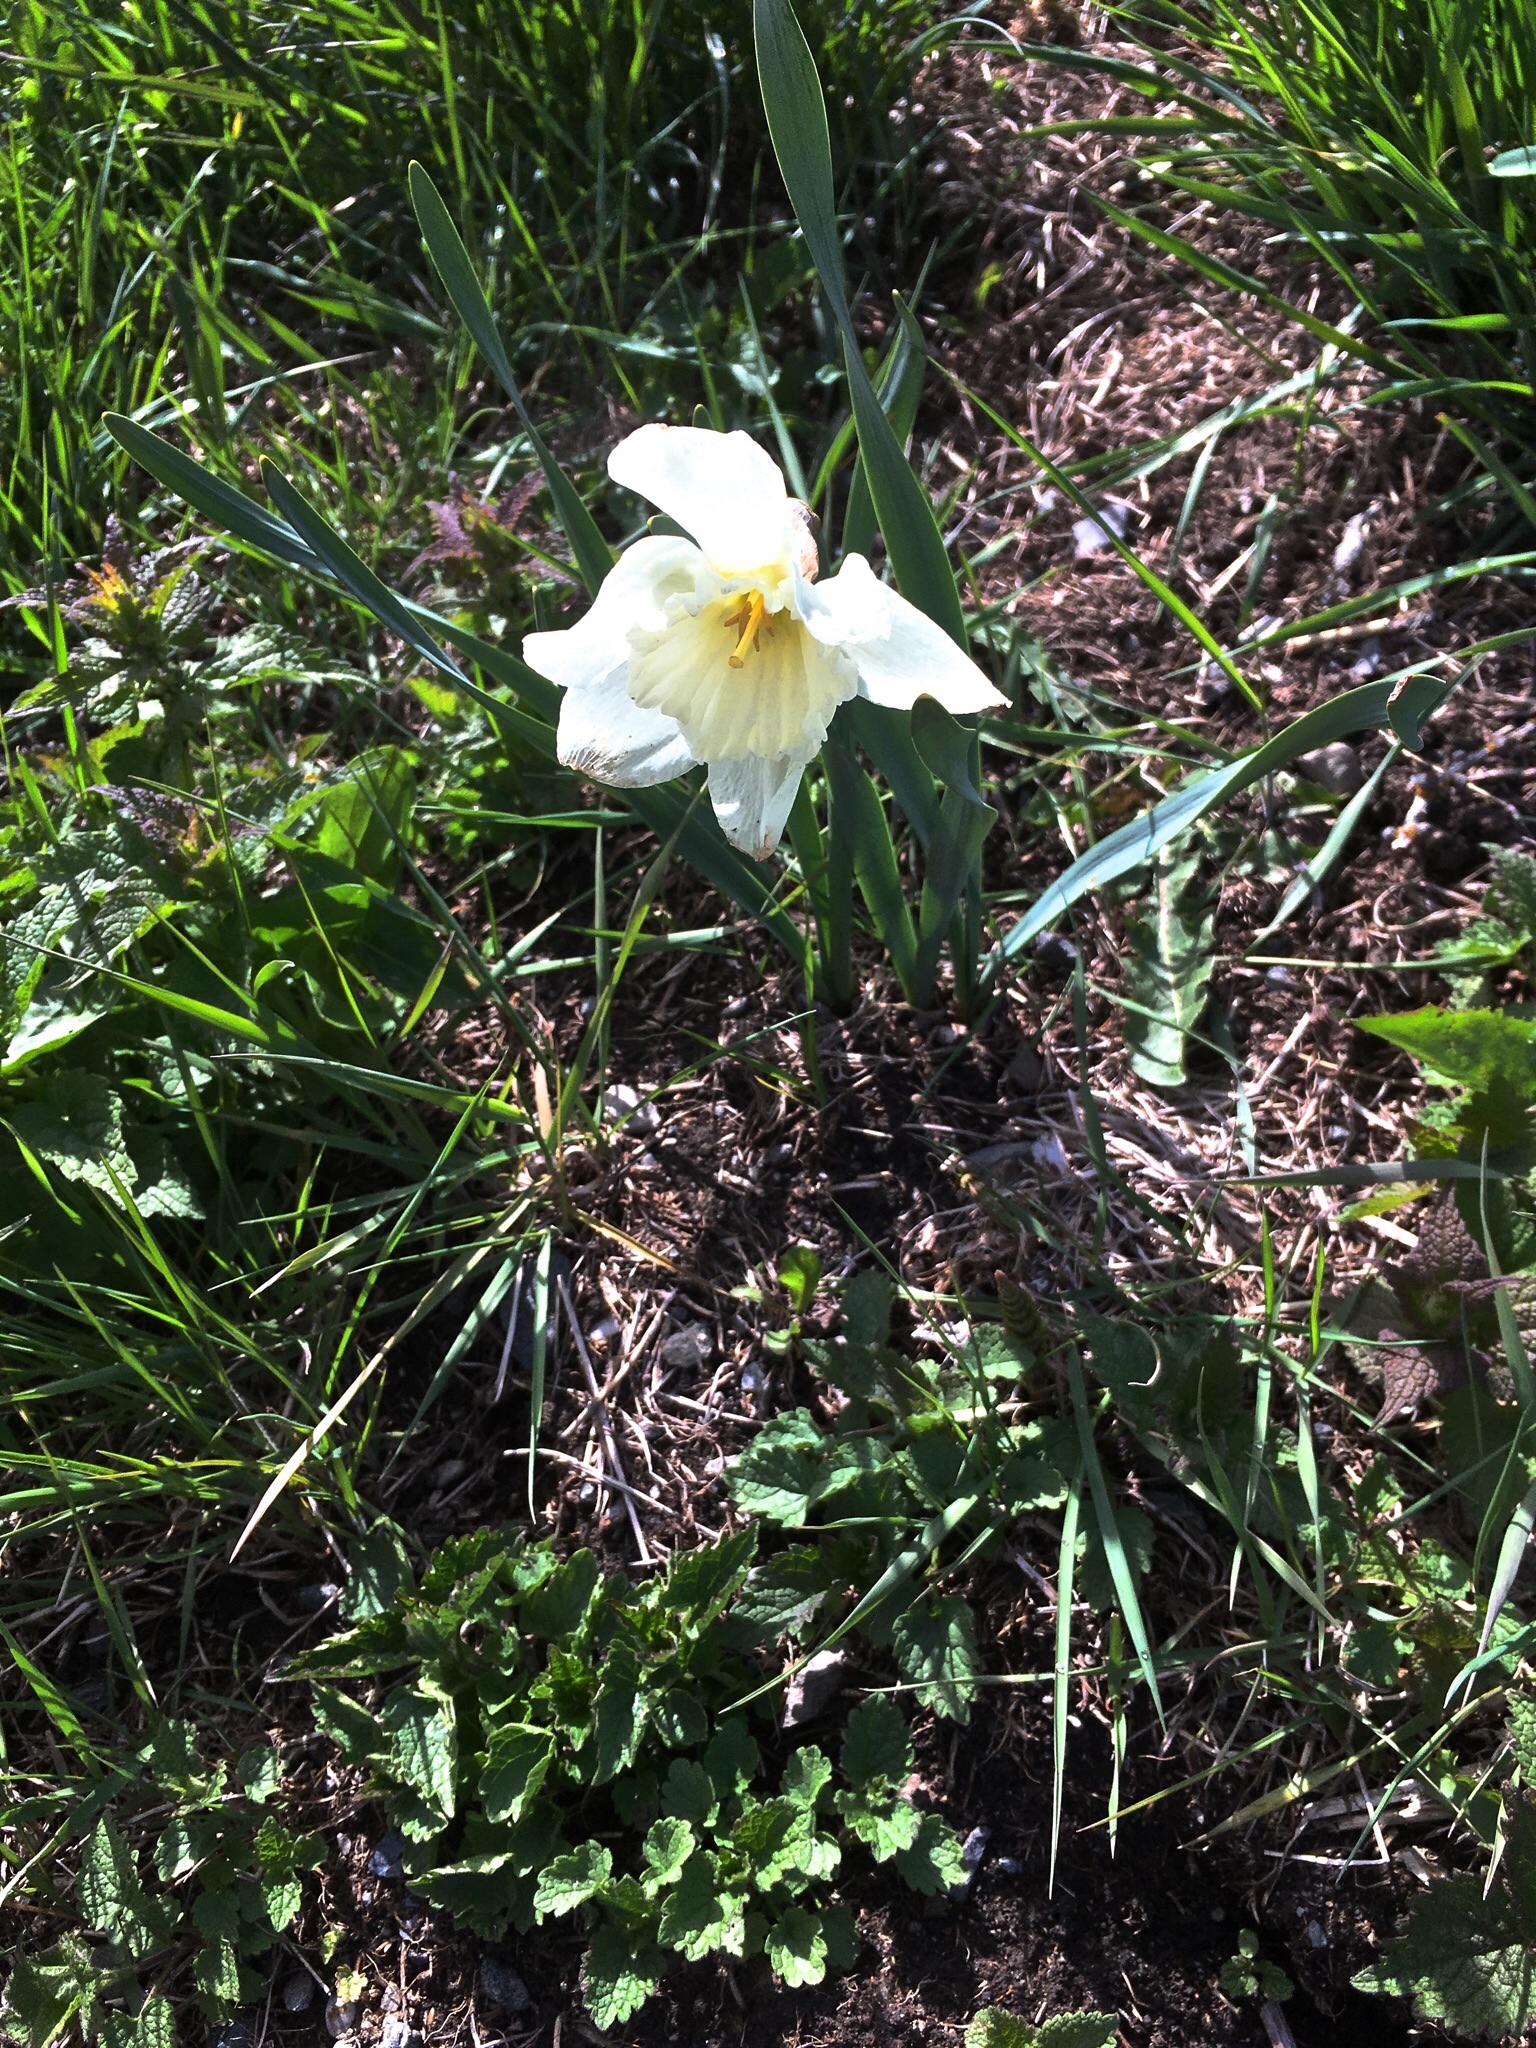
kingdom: Plantae
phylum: Tracheophyta
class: Liliopsida
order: Asparagales
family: Amaryllidaceae
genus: Narcissus
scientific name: Narcissus poeticus
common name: Pheasant's-eye daffodil
